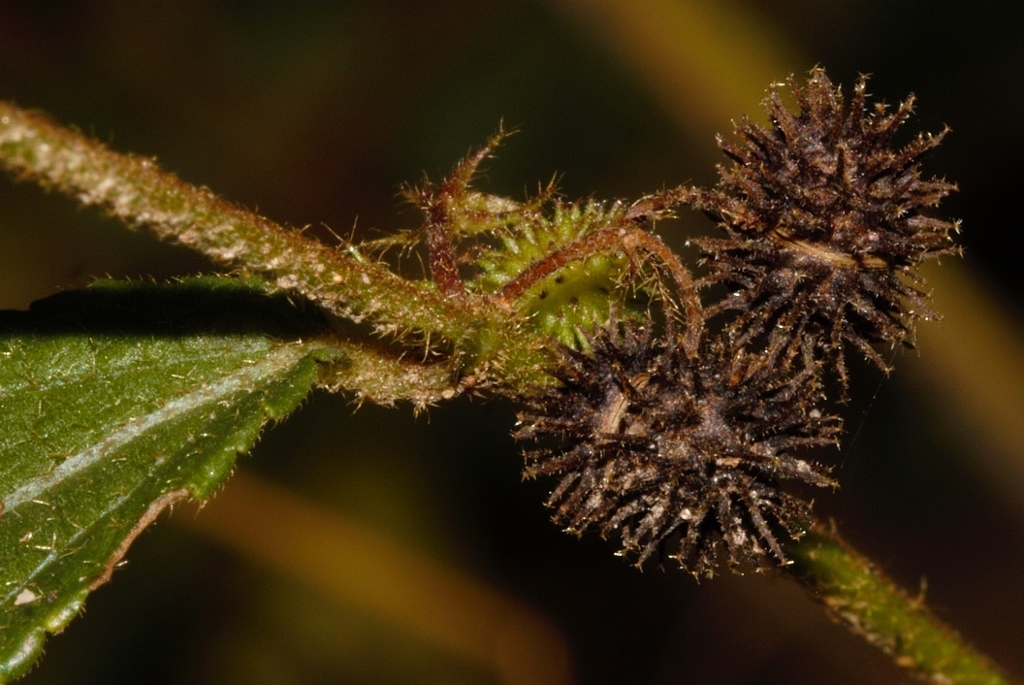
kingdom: Plantae
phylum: Tracheophyta
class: Magnoliopsida
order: Malvales
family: Malvaceae
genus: Triumfetta
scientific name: Triumfetta angolensis
